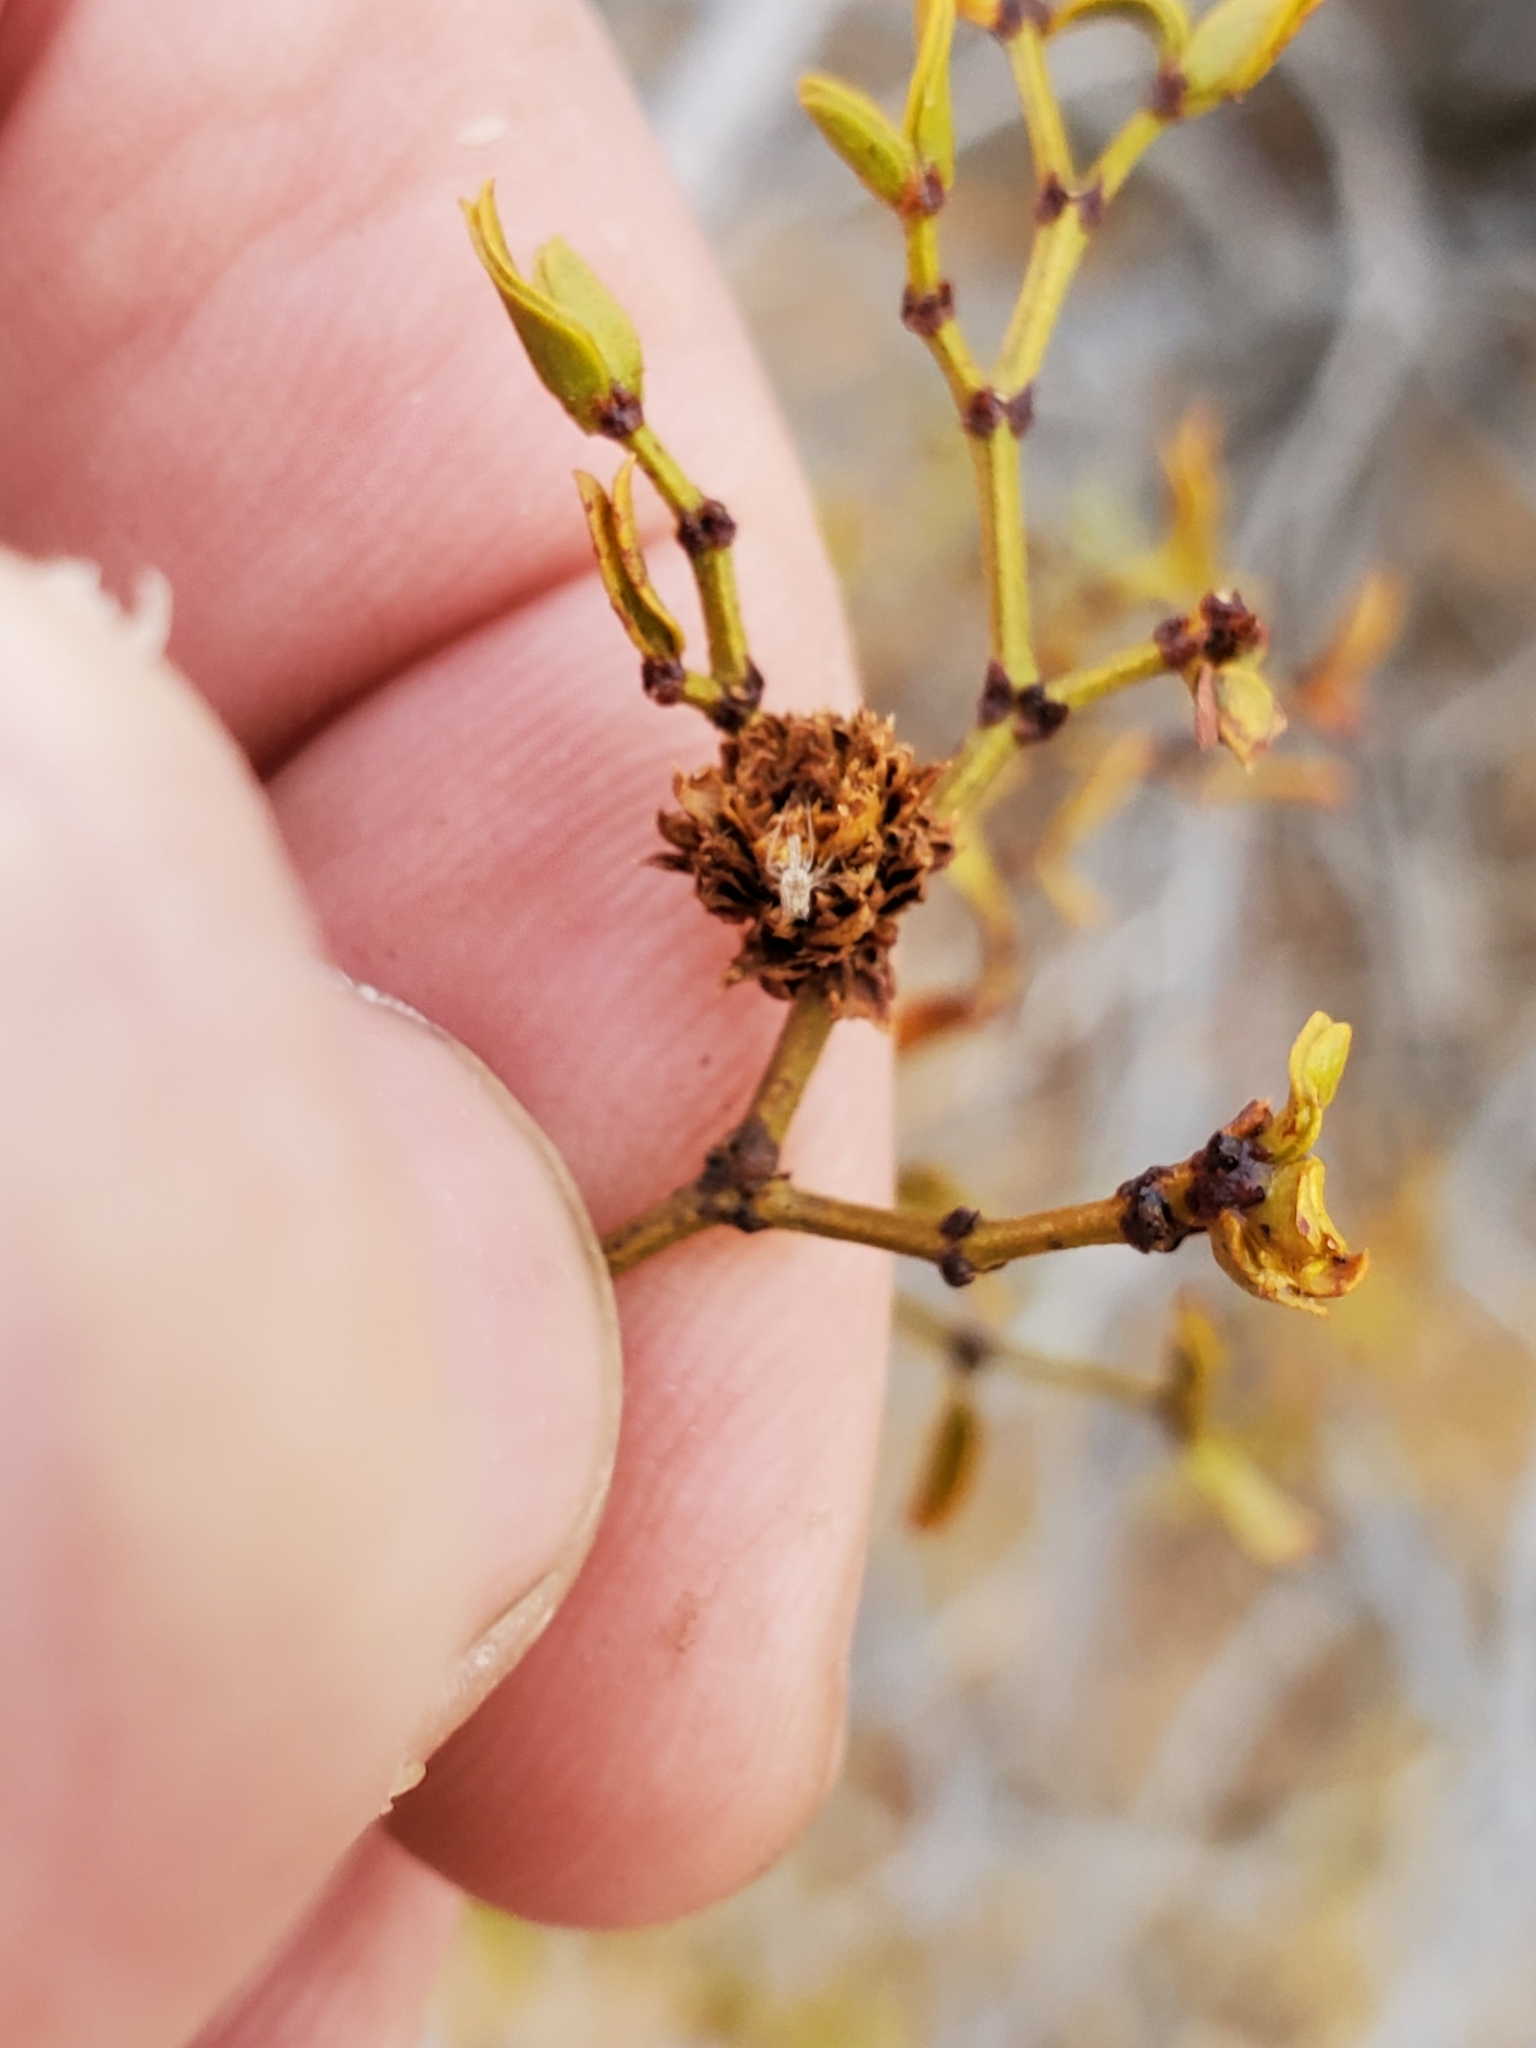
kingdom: Animalia
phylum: Arthropoda
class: Insecta
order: Diptera
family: Cecidomyiidae
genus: Asphondylia
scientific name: Asphondylia foliosa
